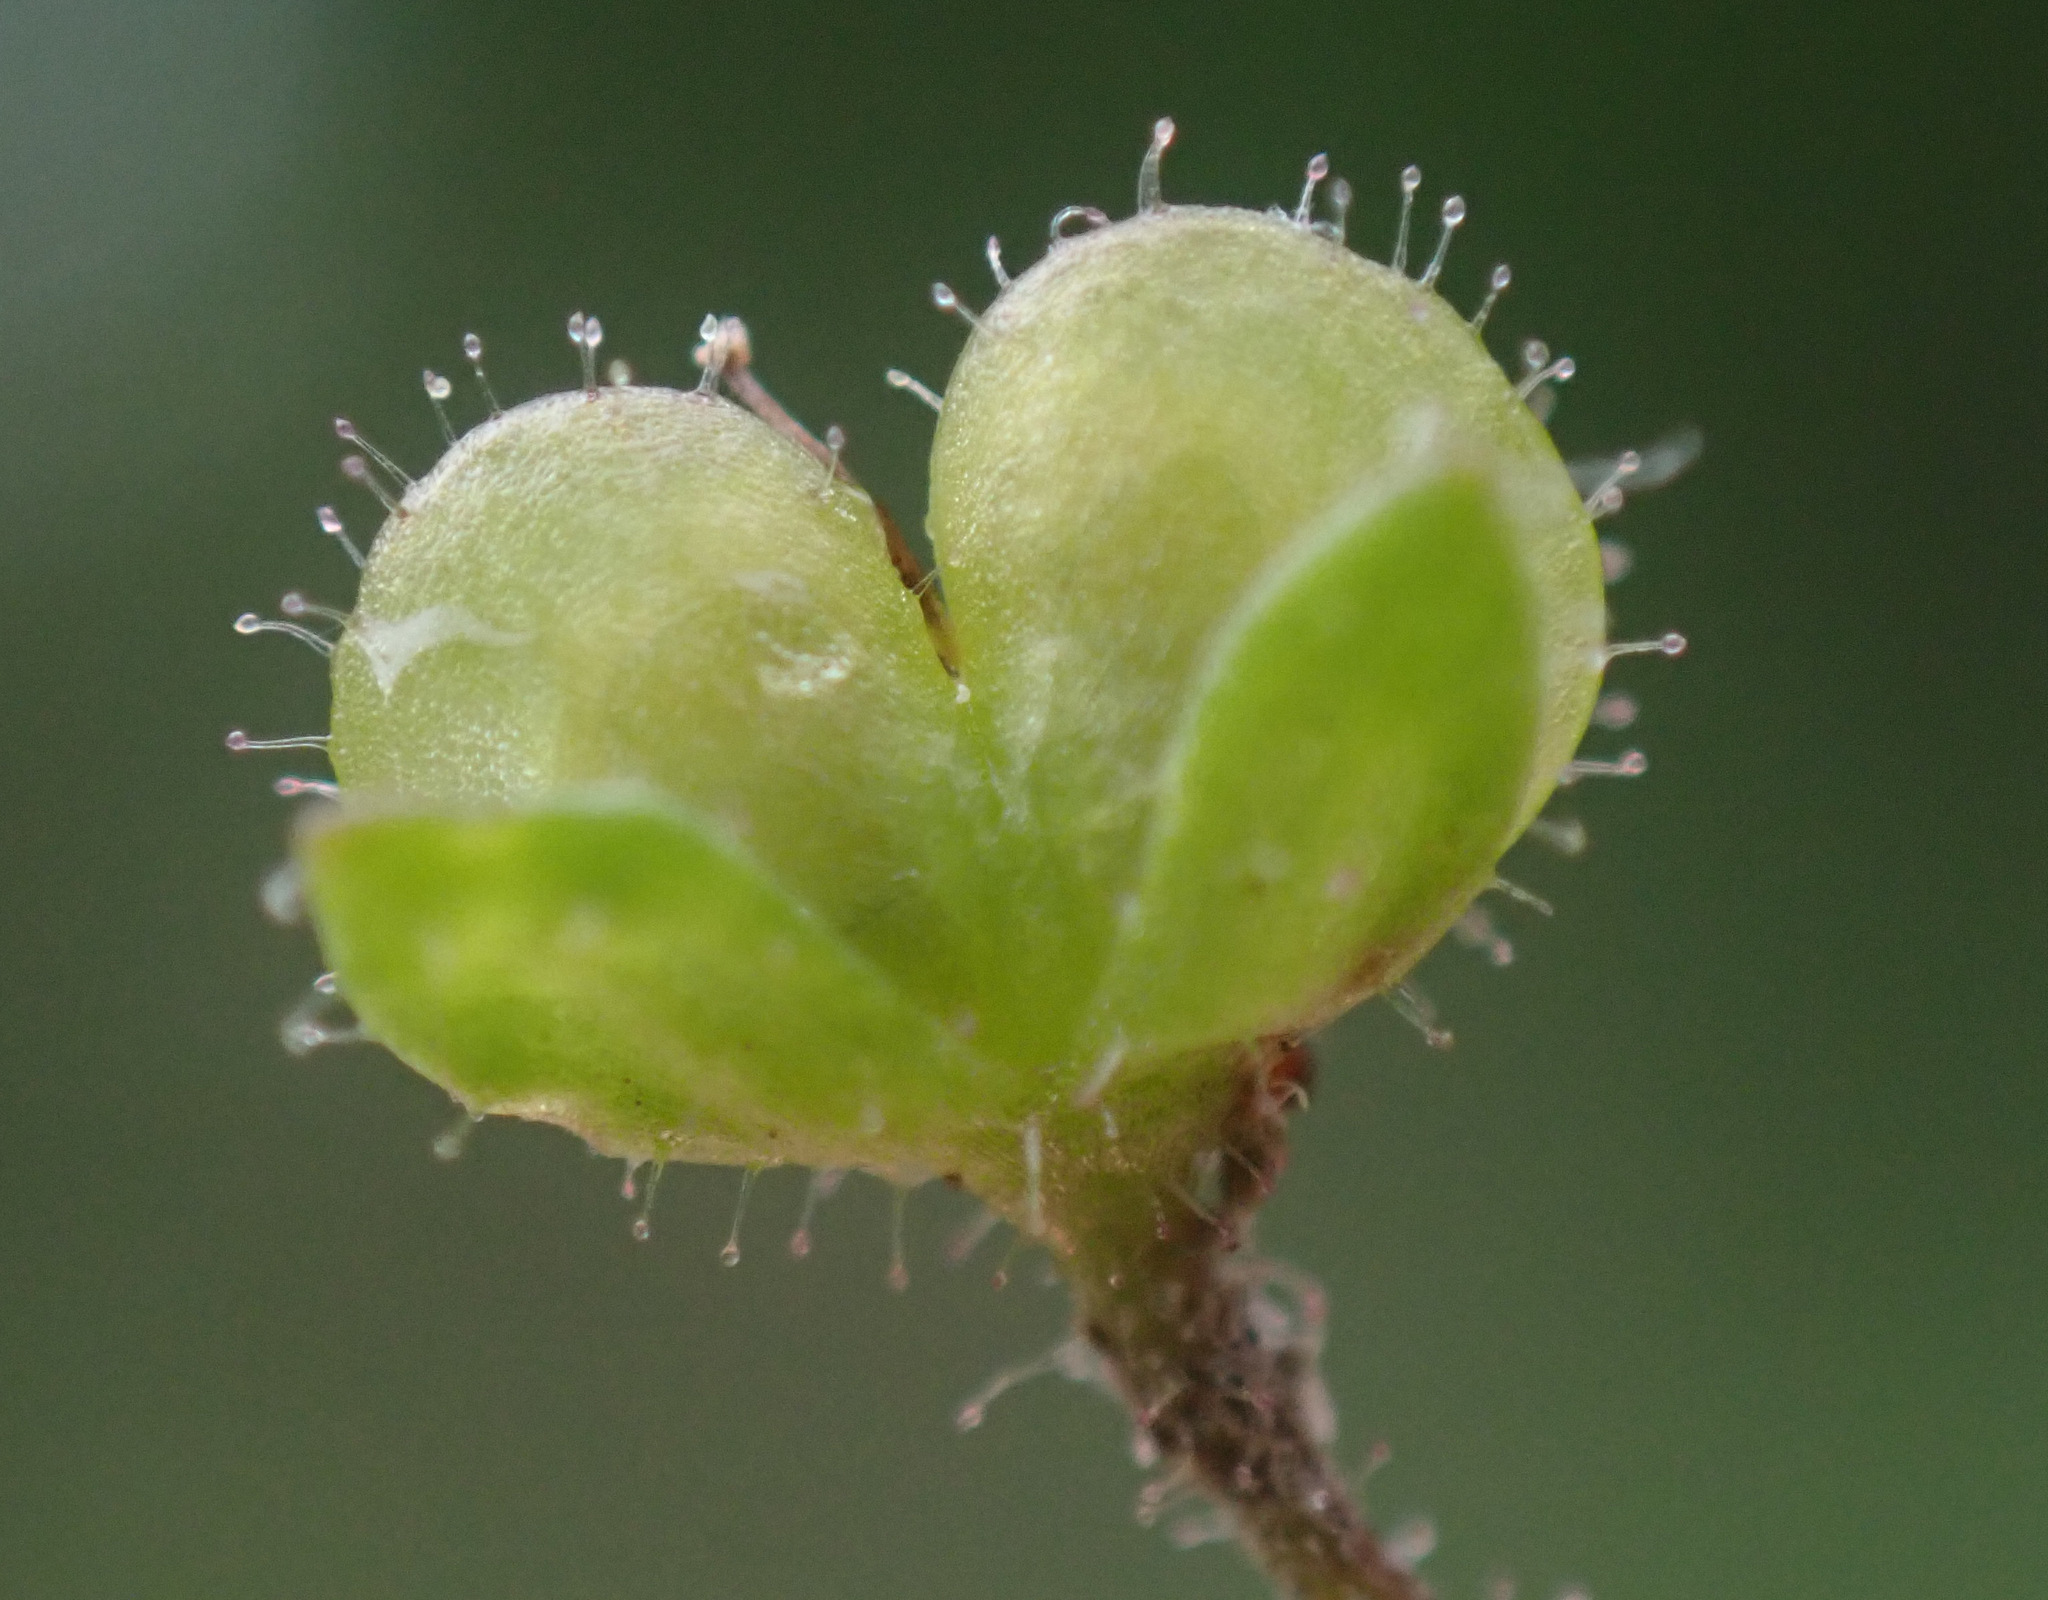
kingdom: Plantae
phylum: Tracheophyta
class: Magnoliopsida
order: Lamiales
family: Plantaginaceae
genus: Veronica
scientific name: Veronica acinifolia
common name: French speedwell
